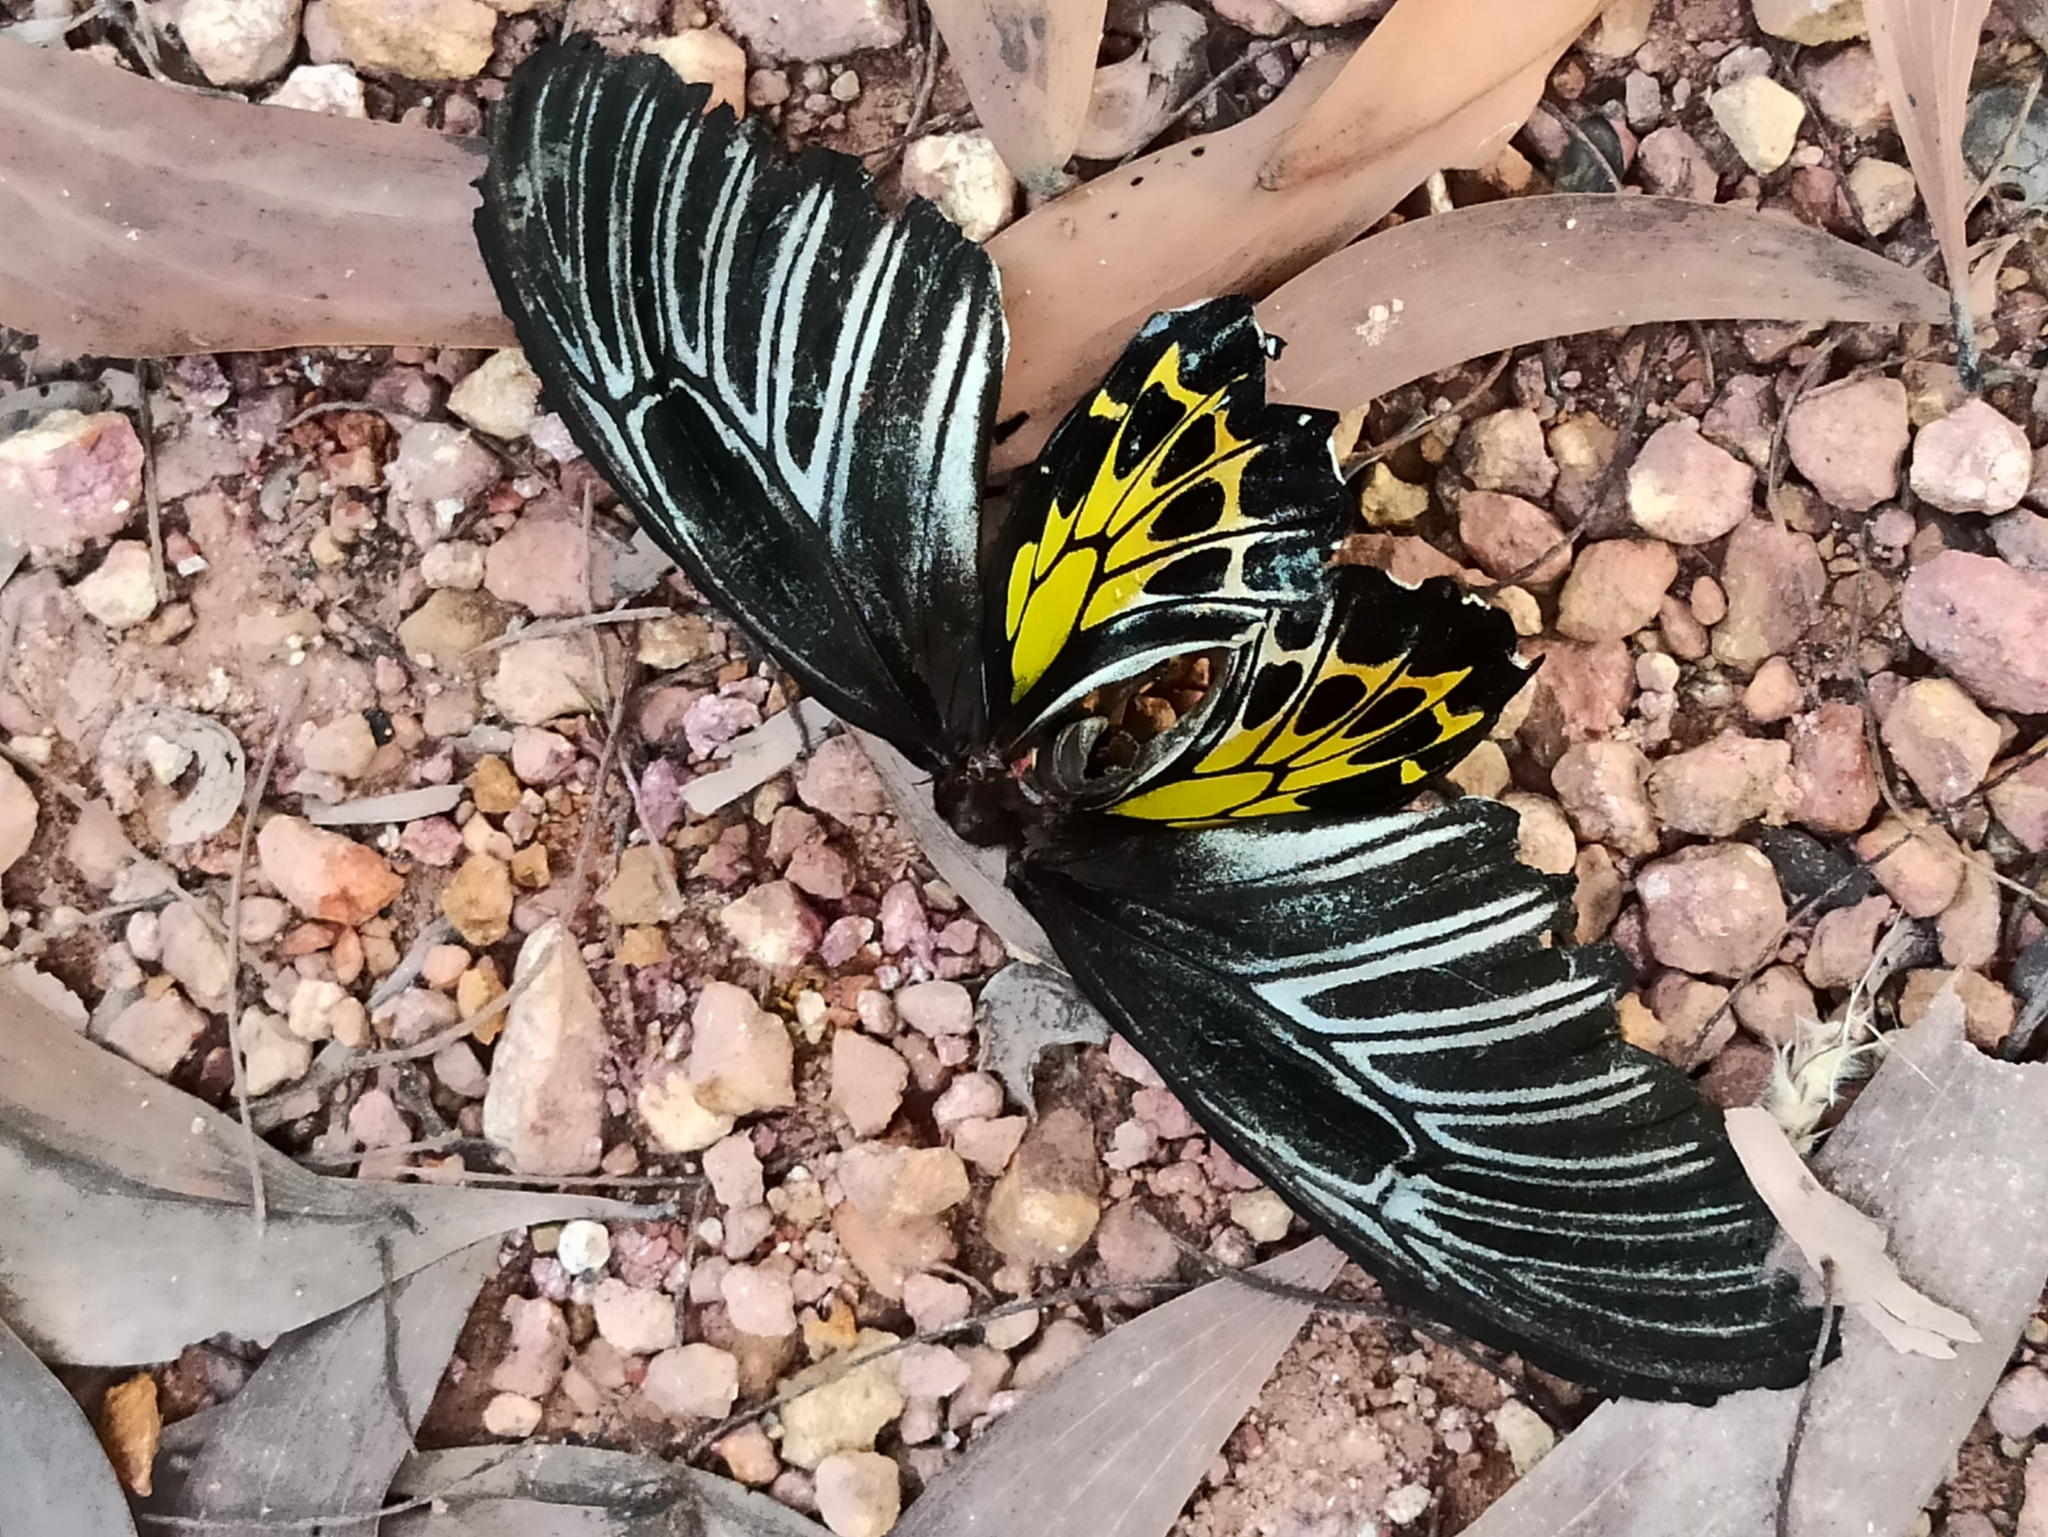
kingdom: Animalia
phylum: Arthropoda
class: Insecta
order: Lepidoptera
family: Papilionidae
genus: Troides
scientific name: Troides minos
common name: Malabar birdwing
